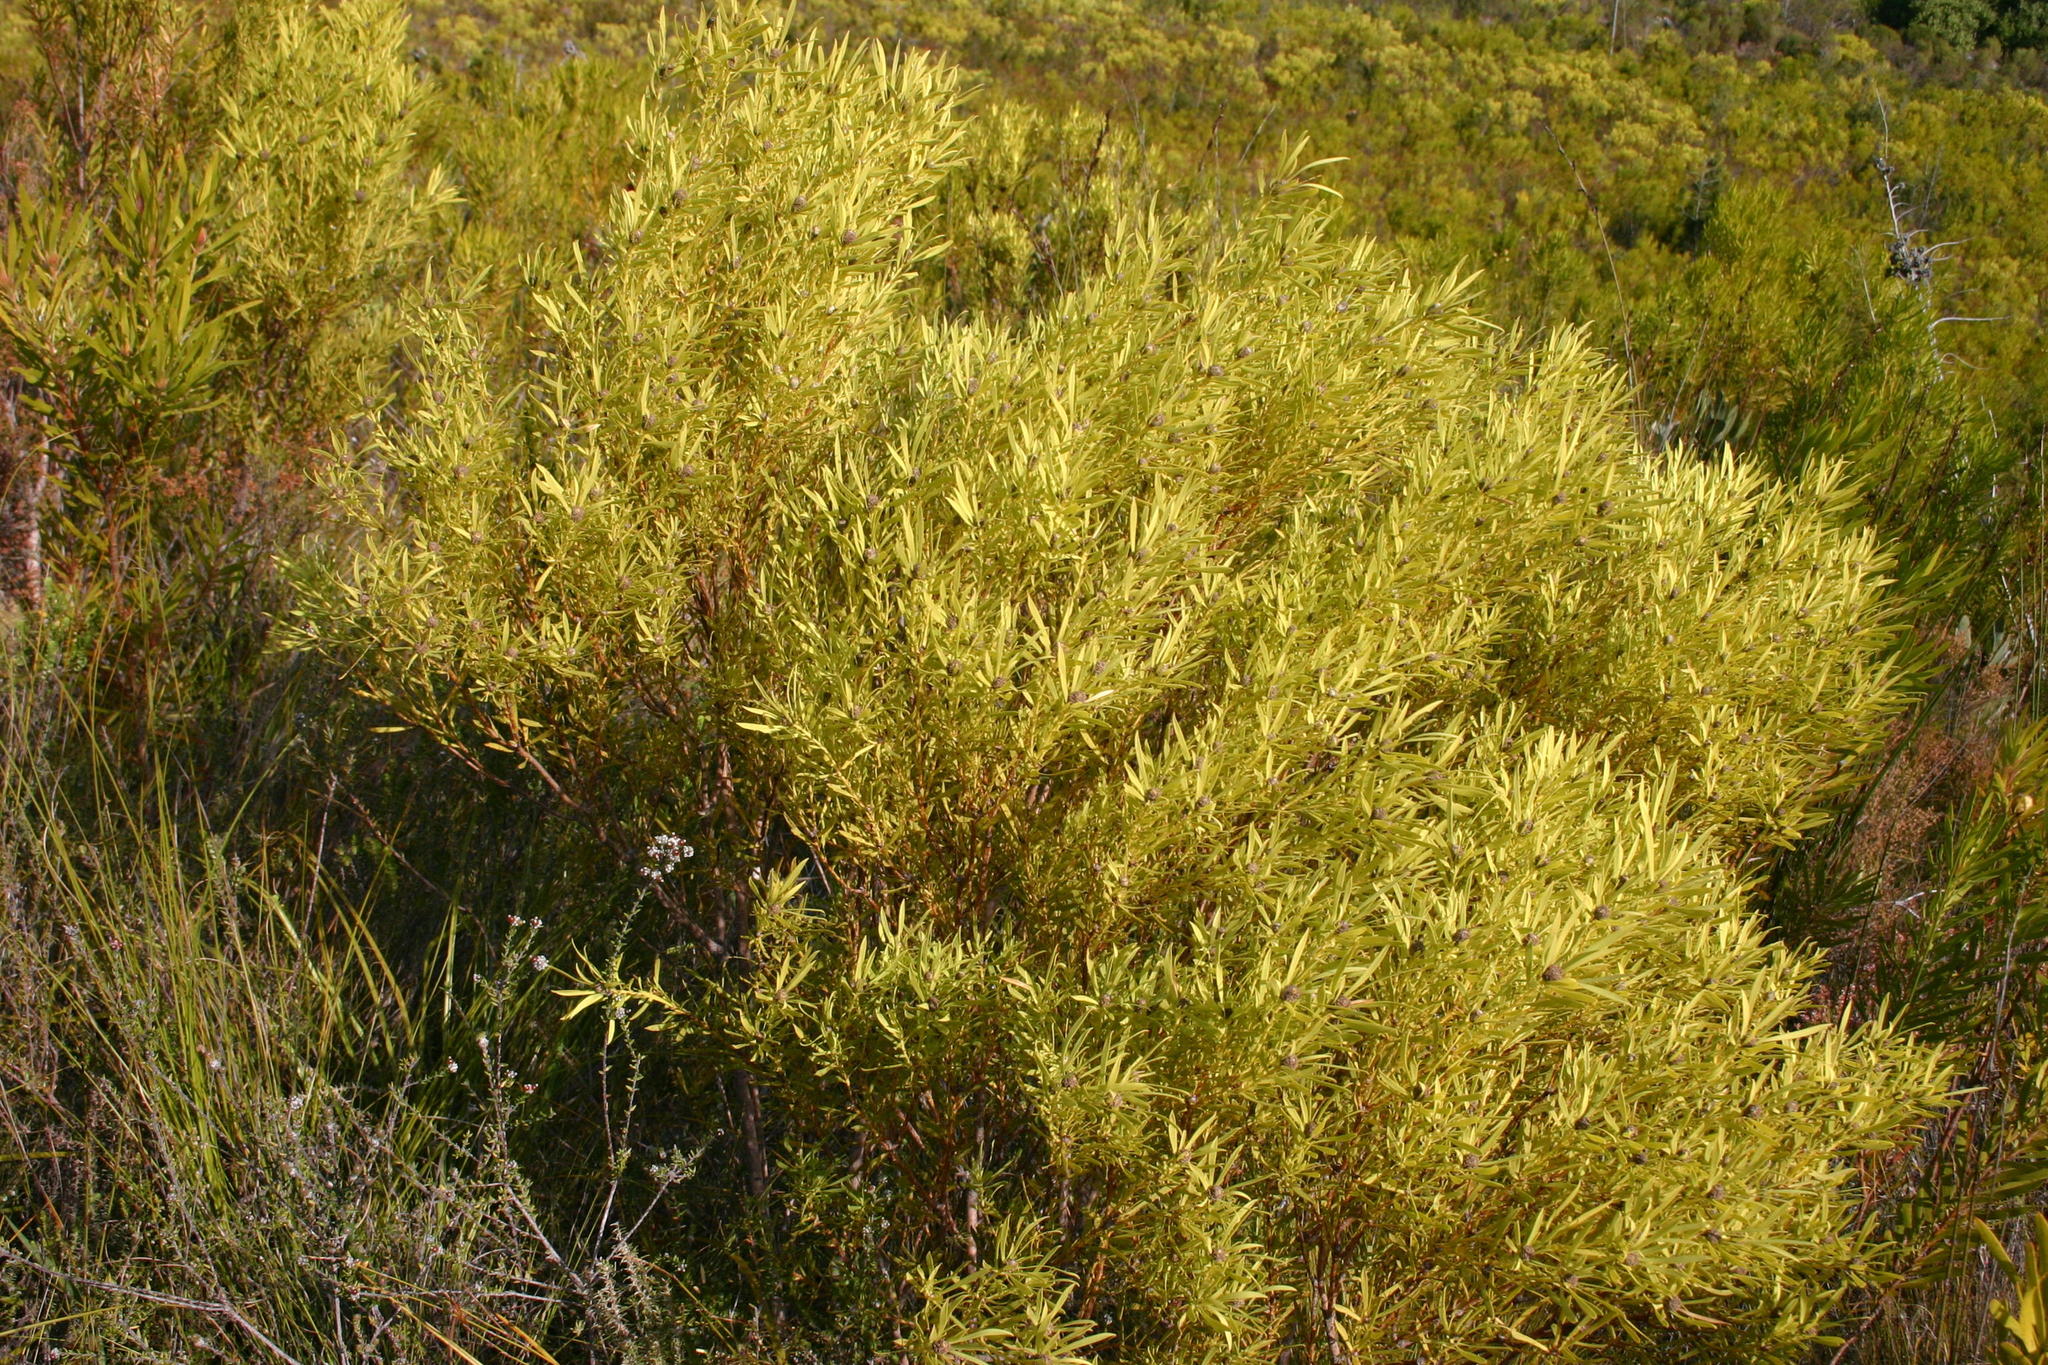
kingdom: Plantae
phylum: Tracheophyta
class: Magnoliopsida
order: Proteales
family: Proteaceae
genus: Leucadendron
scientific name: Leucadendron salignum
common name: Common sunshine conebush
